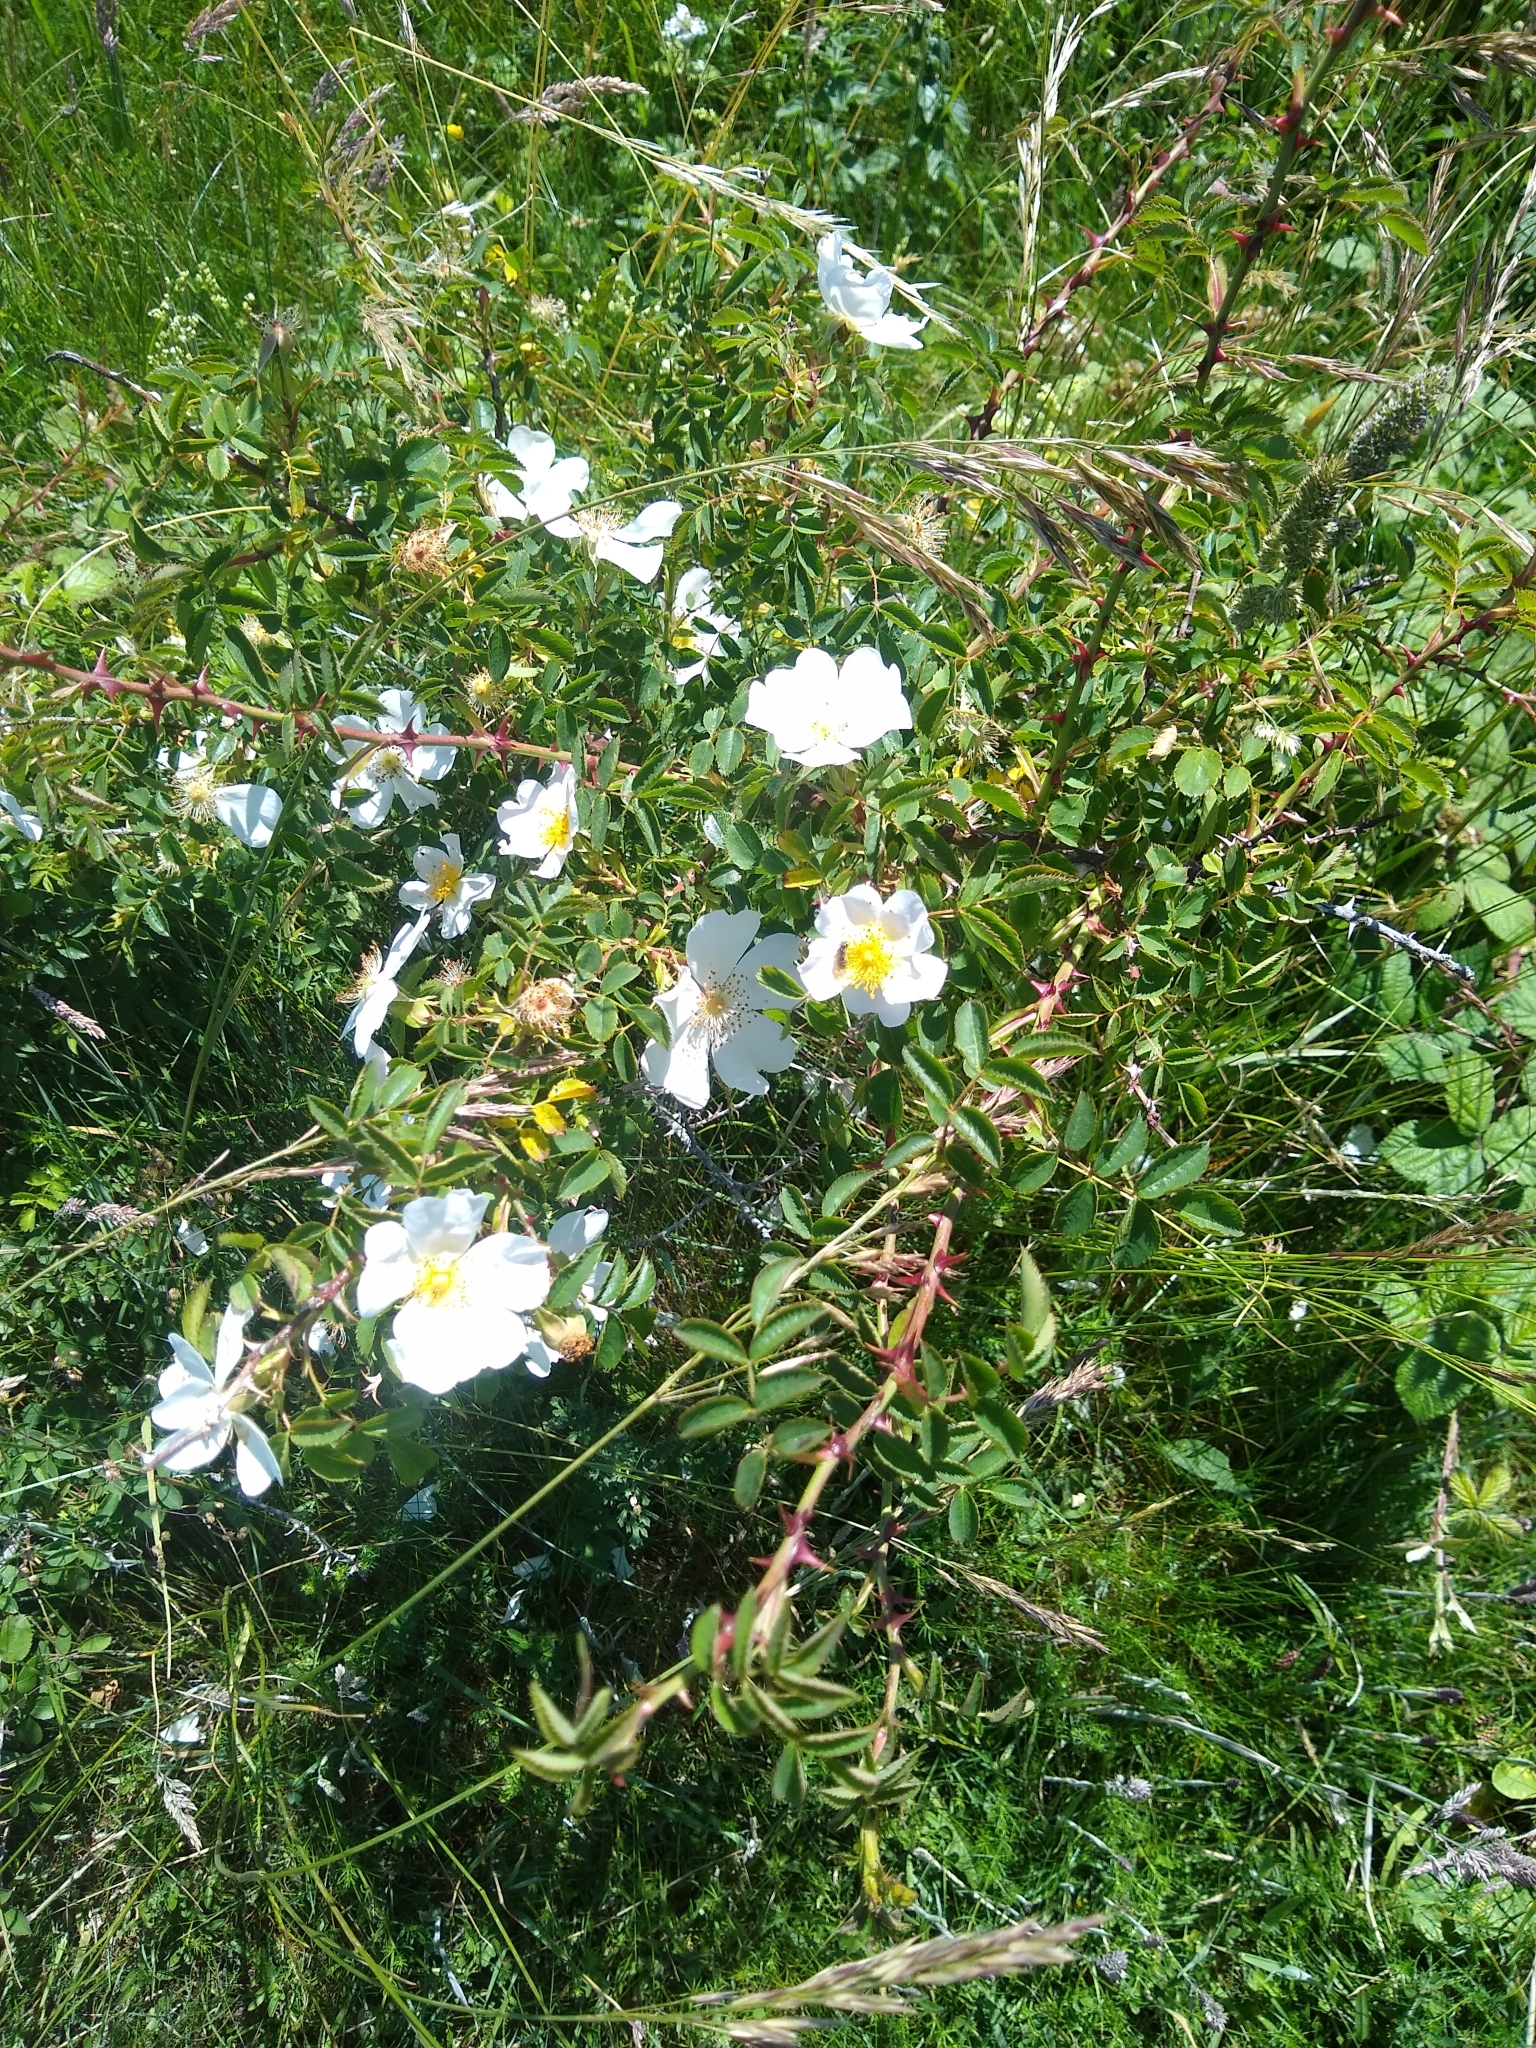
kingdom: Plantae
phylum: Tracheophyta
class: Magnoliopsida
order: Rosales
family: Rosaceae
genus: Rosa
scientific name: Rosa canina
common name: Dog rose
